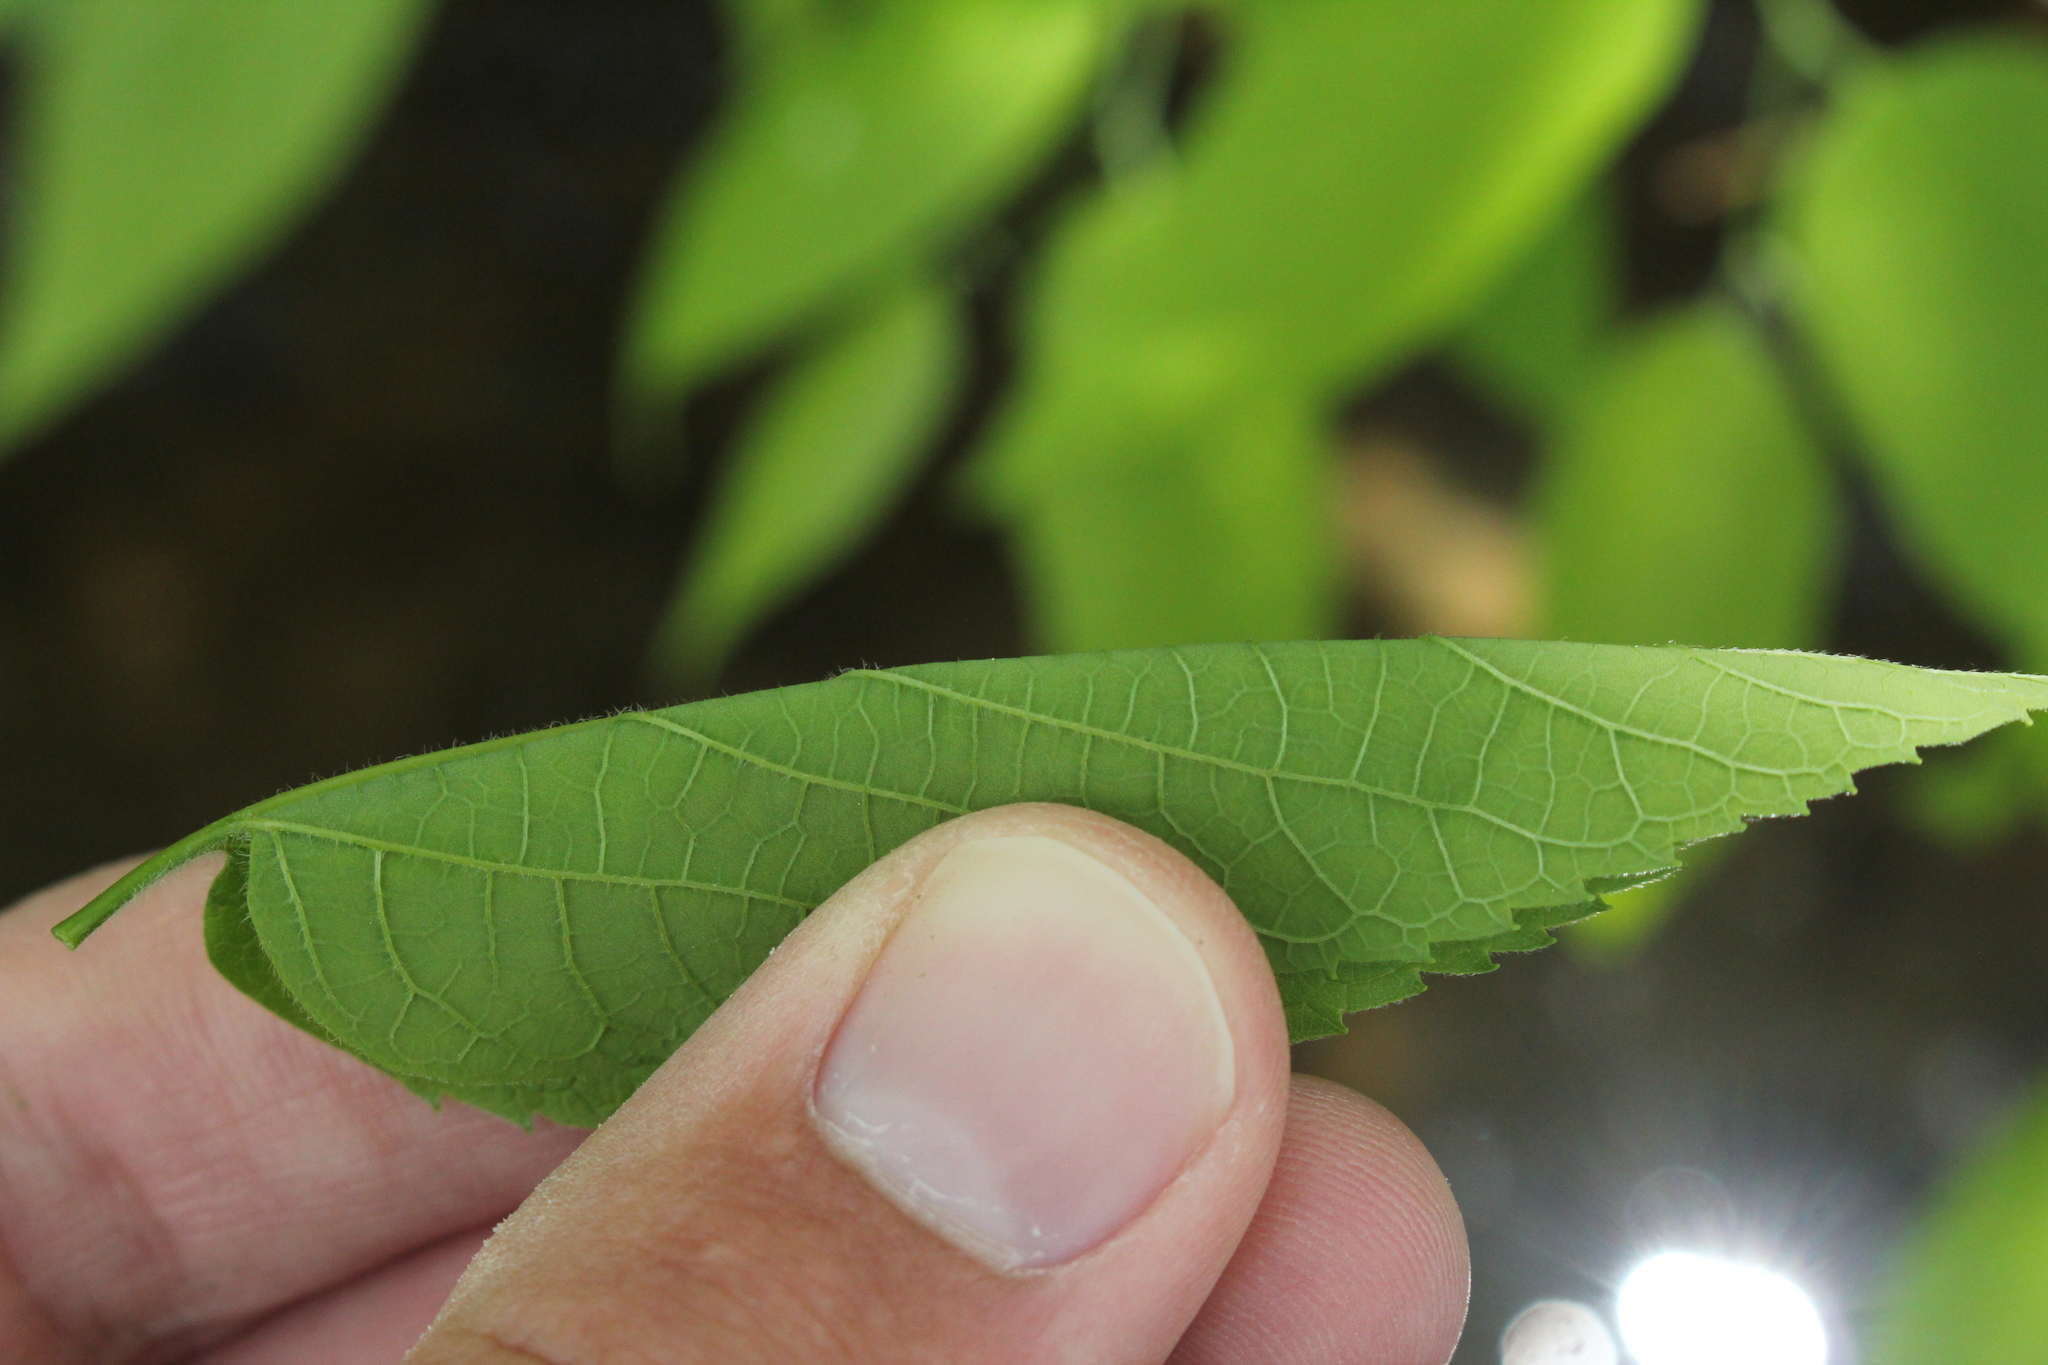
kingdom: Plantae
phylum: Tracheophyta
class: Magnoliopsida
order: Rosales
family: Cannabaceae
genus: Celtis
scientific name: Celtis occidentalis
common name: Common hackberry
